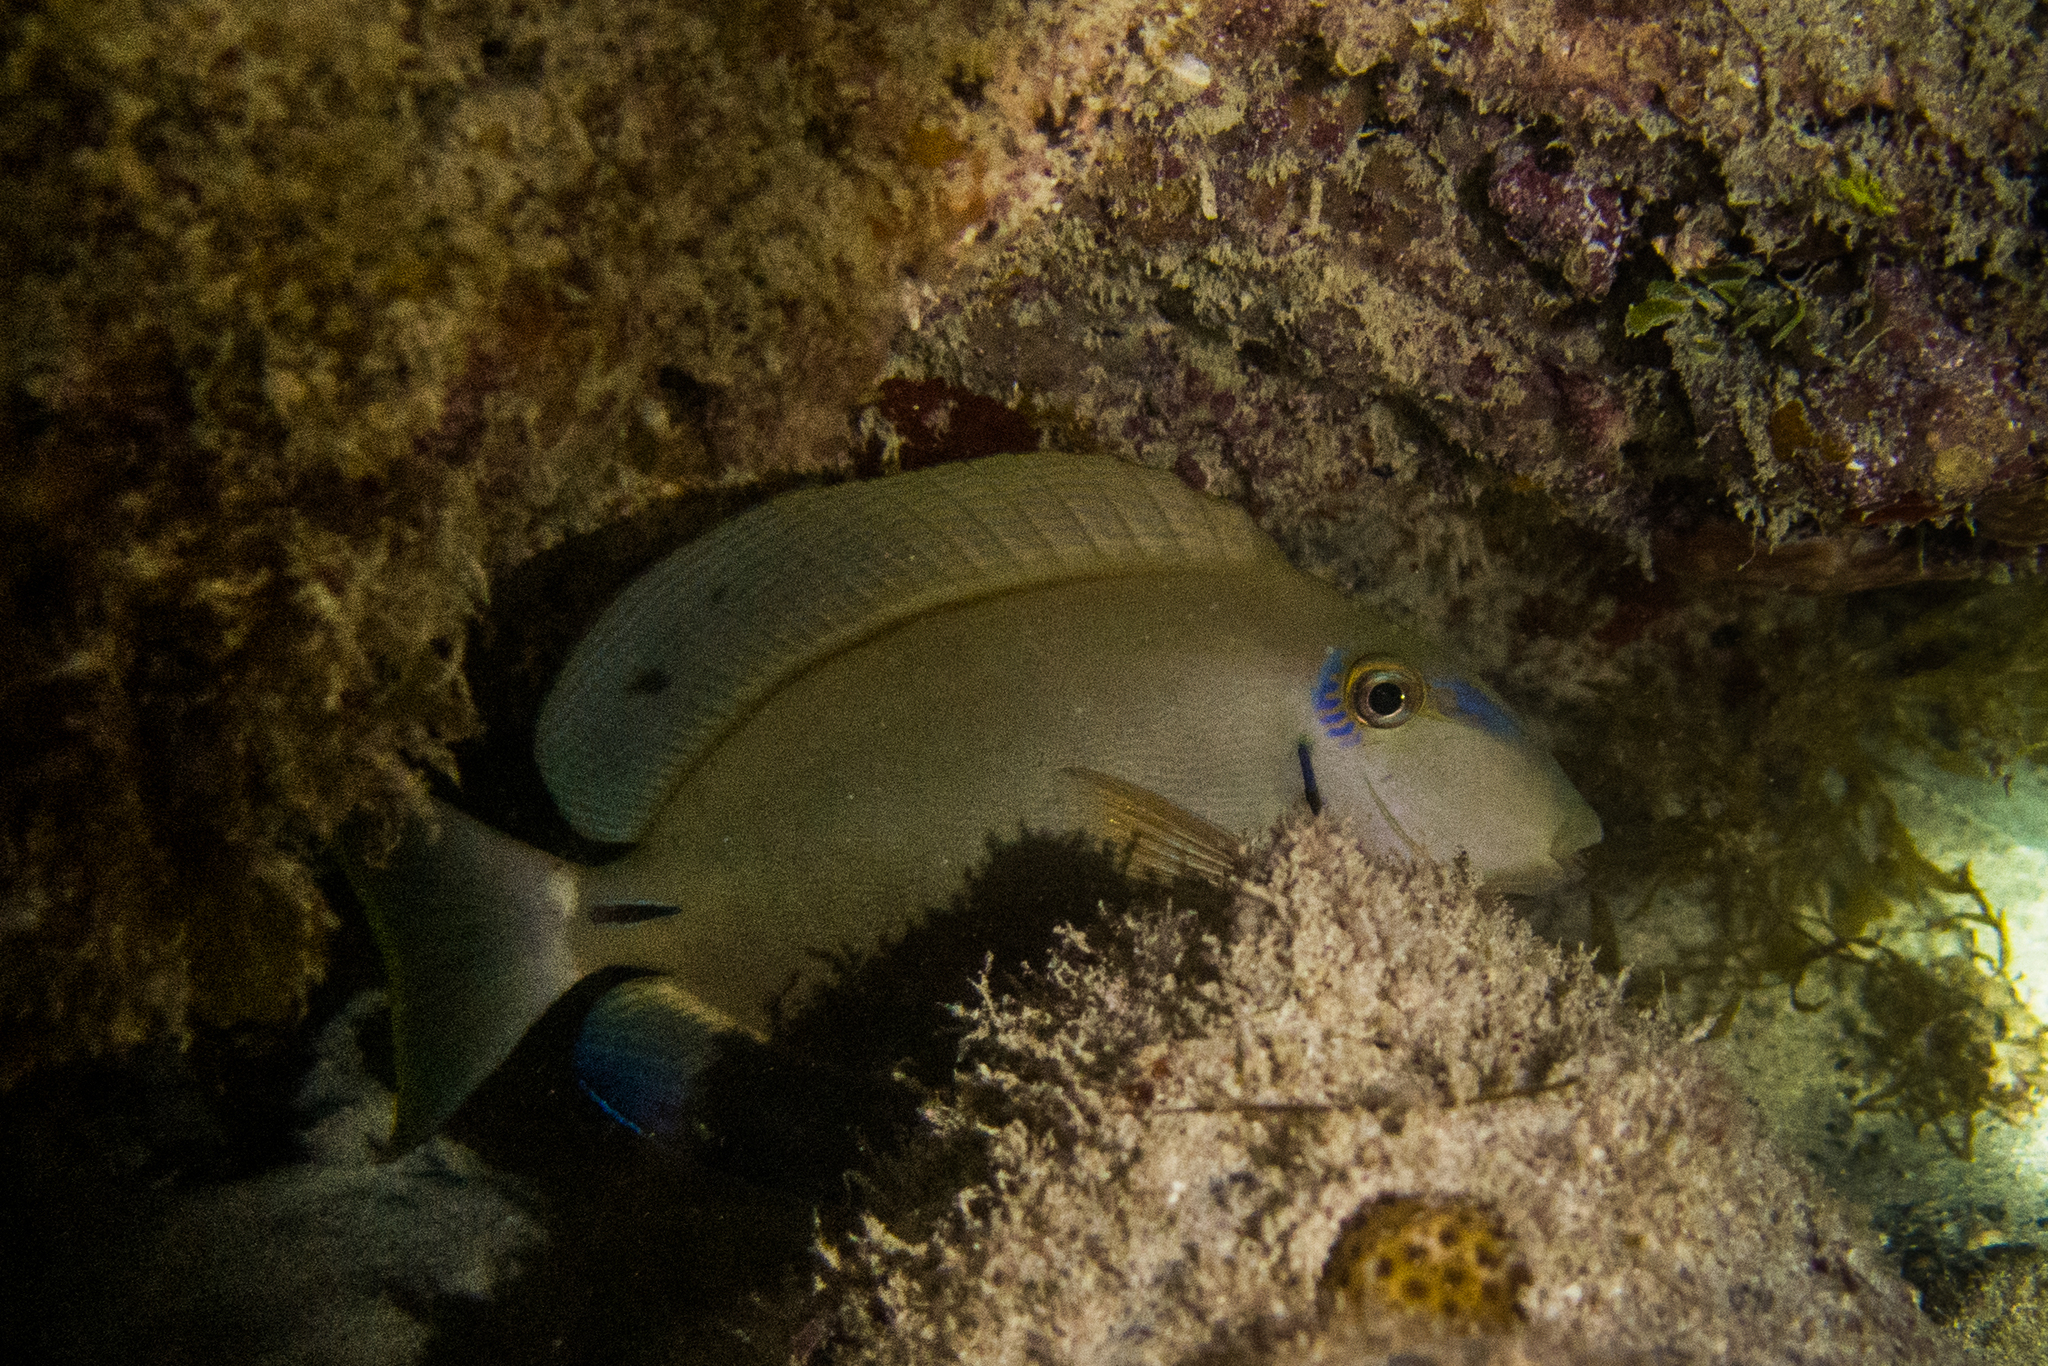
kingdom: Animalia
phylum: Chordata
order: Perciformes
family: Acanthuridae
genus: Acanthurus
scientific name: Acanthurus bahianus
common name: Ocean surgeon
